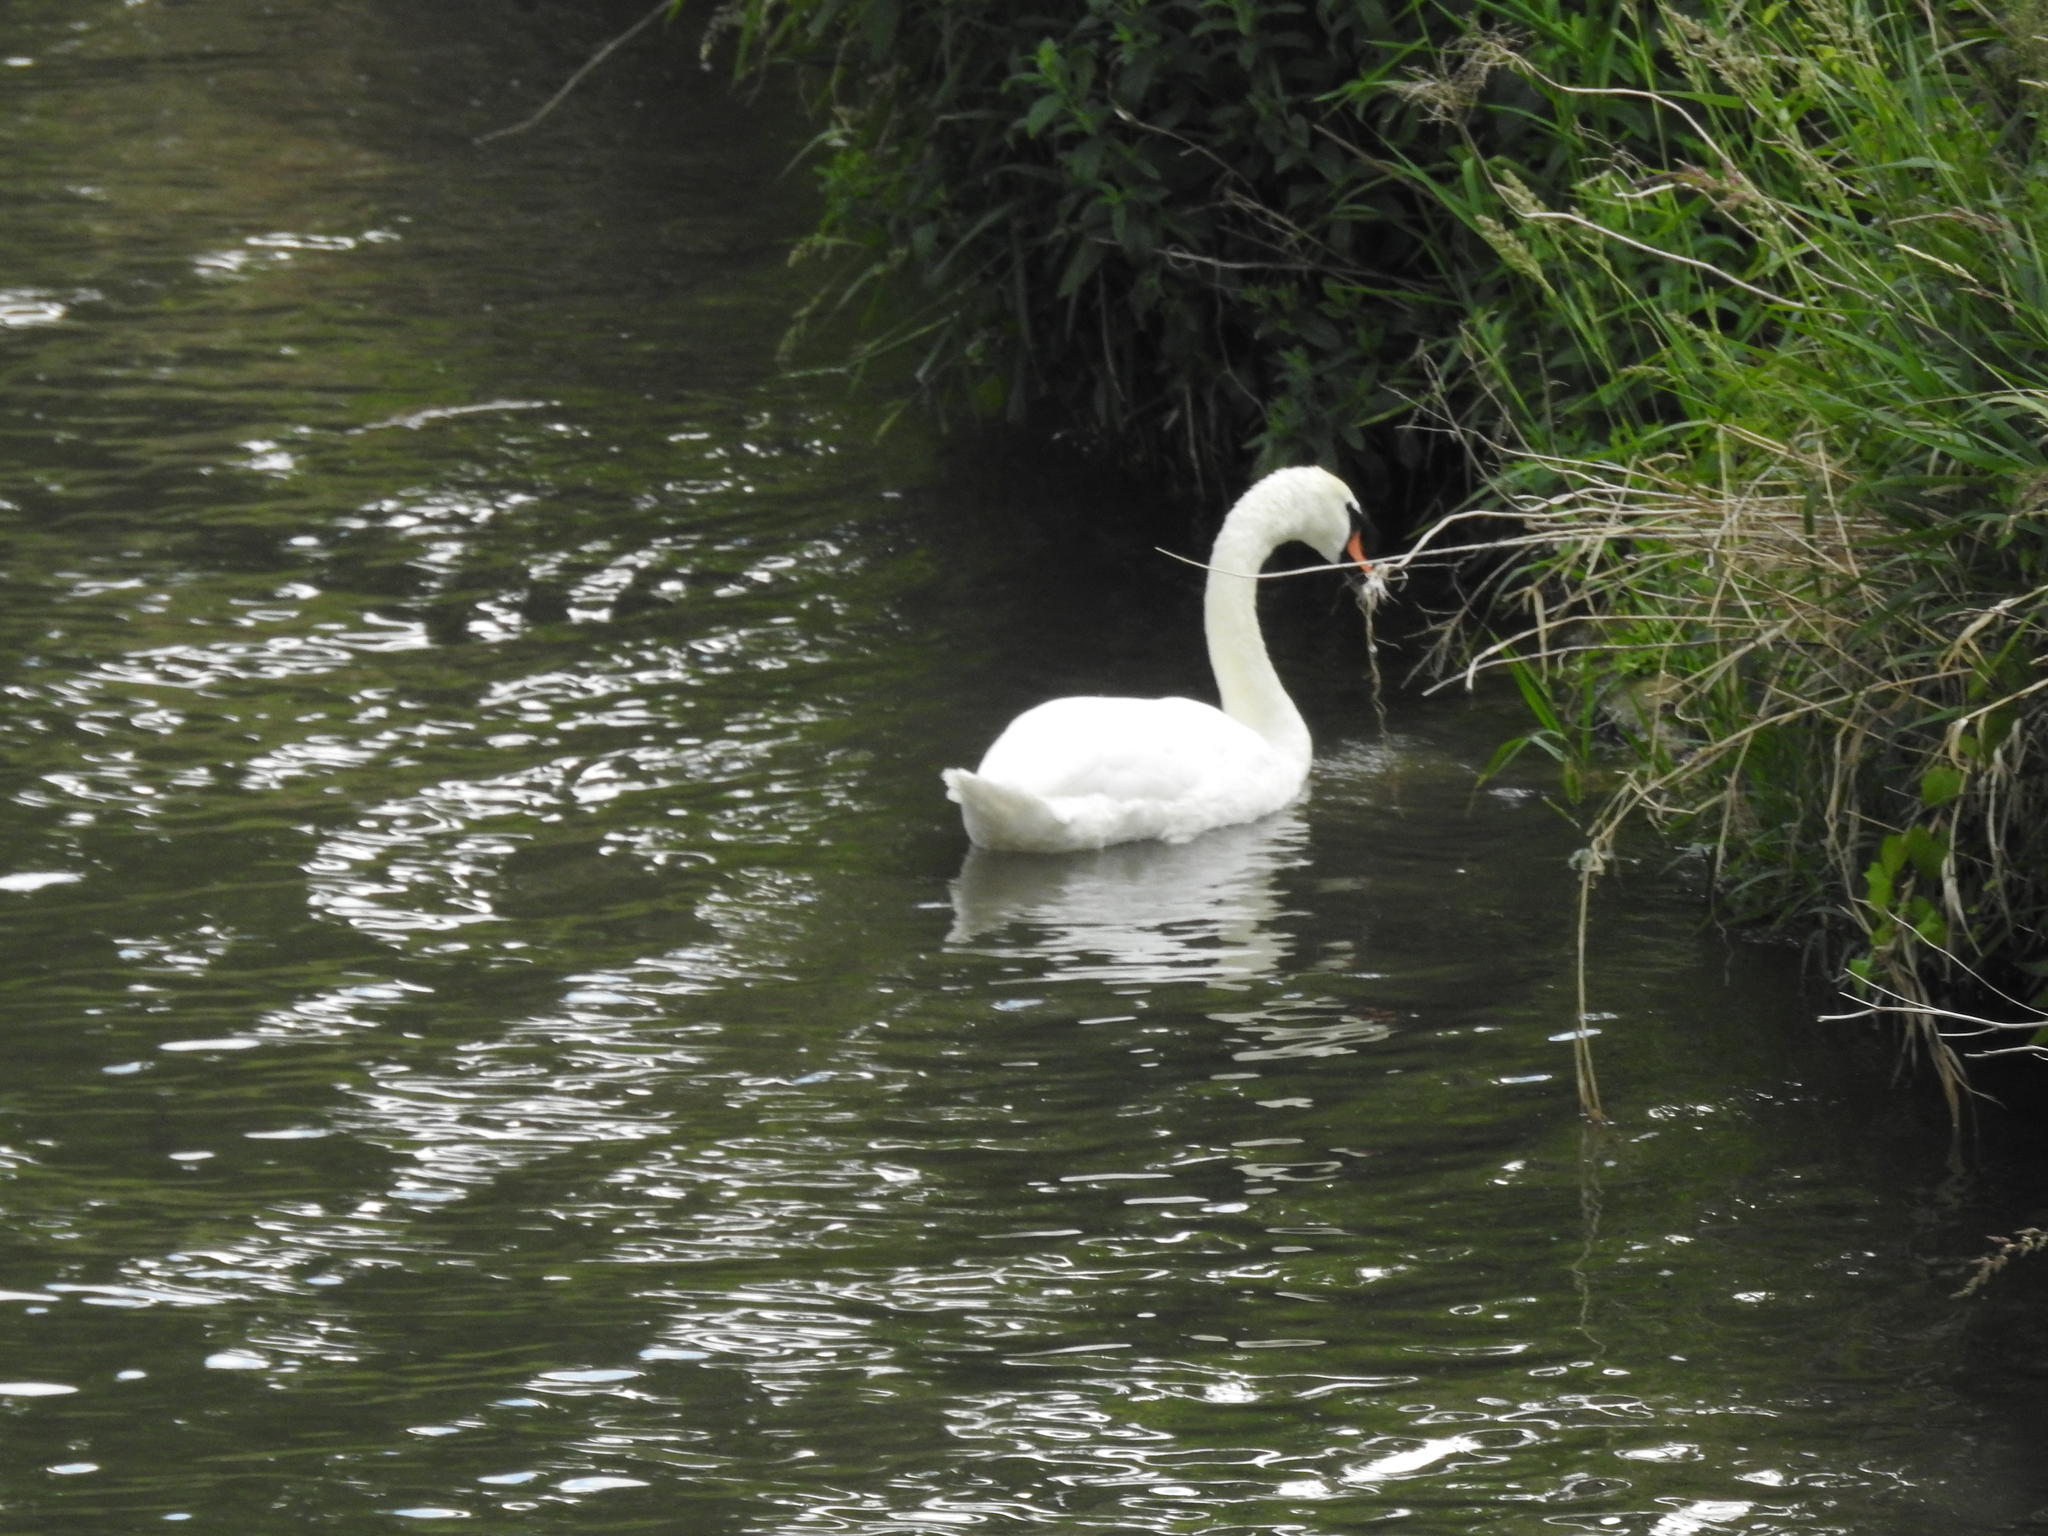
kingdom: Animalia
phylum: Chordata
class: Aves
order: Anseriformes
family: Anatidae
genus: Cygnus
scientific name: Cygnus olor
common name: Mute swan
